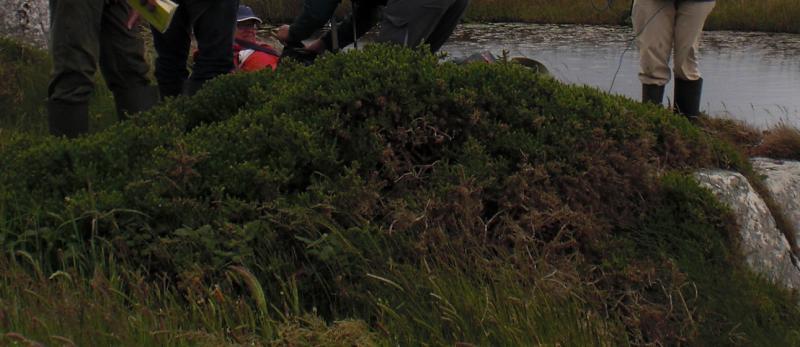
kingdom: Plantae
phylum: Tracheophyta
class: Magnoliopsida
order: Fabales
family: Fabaceae
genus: Ulex
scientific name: Ulex gallii
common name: Western gorse
